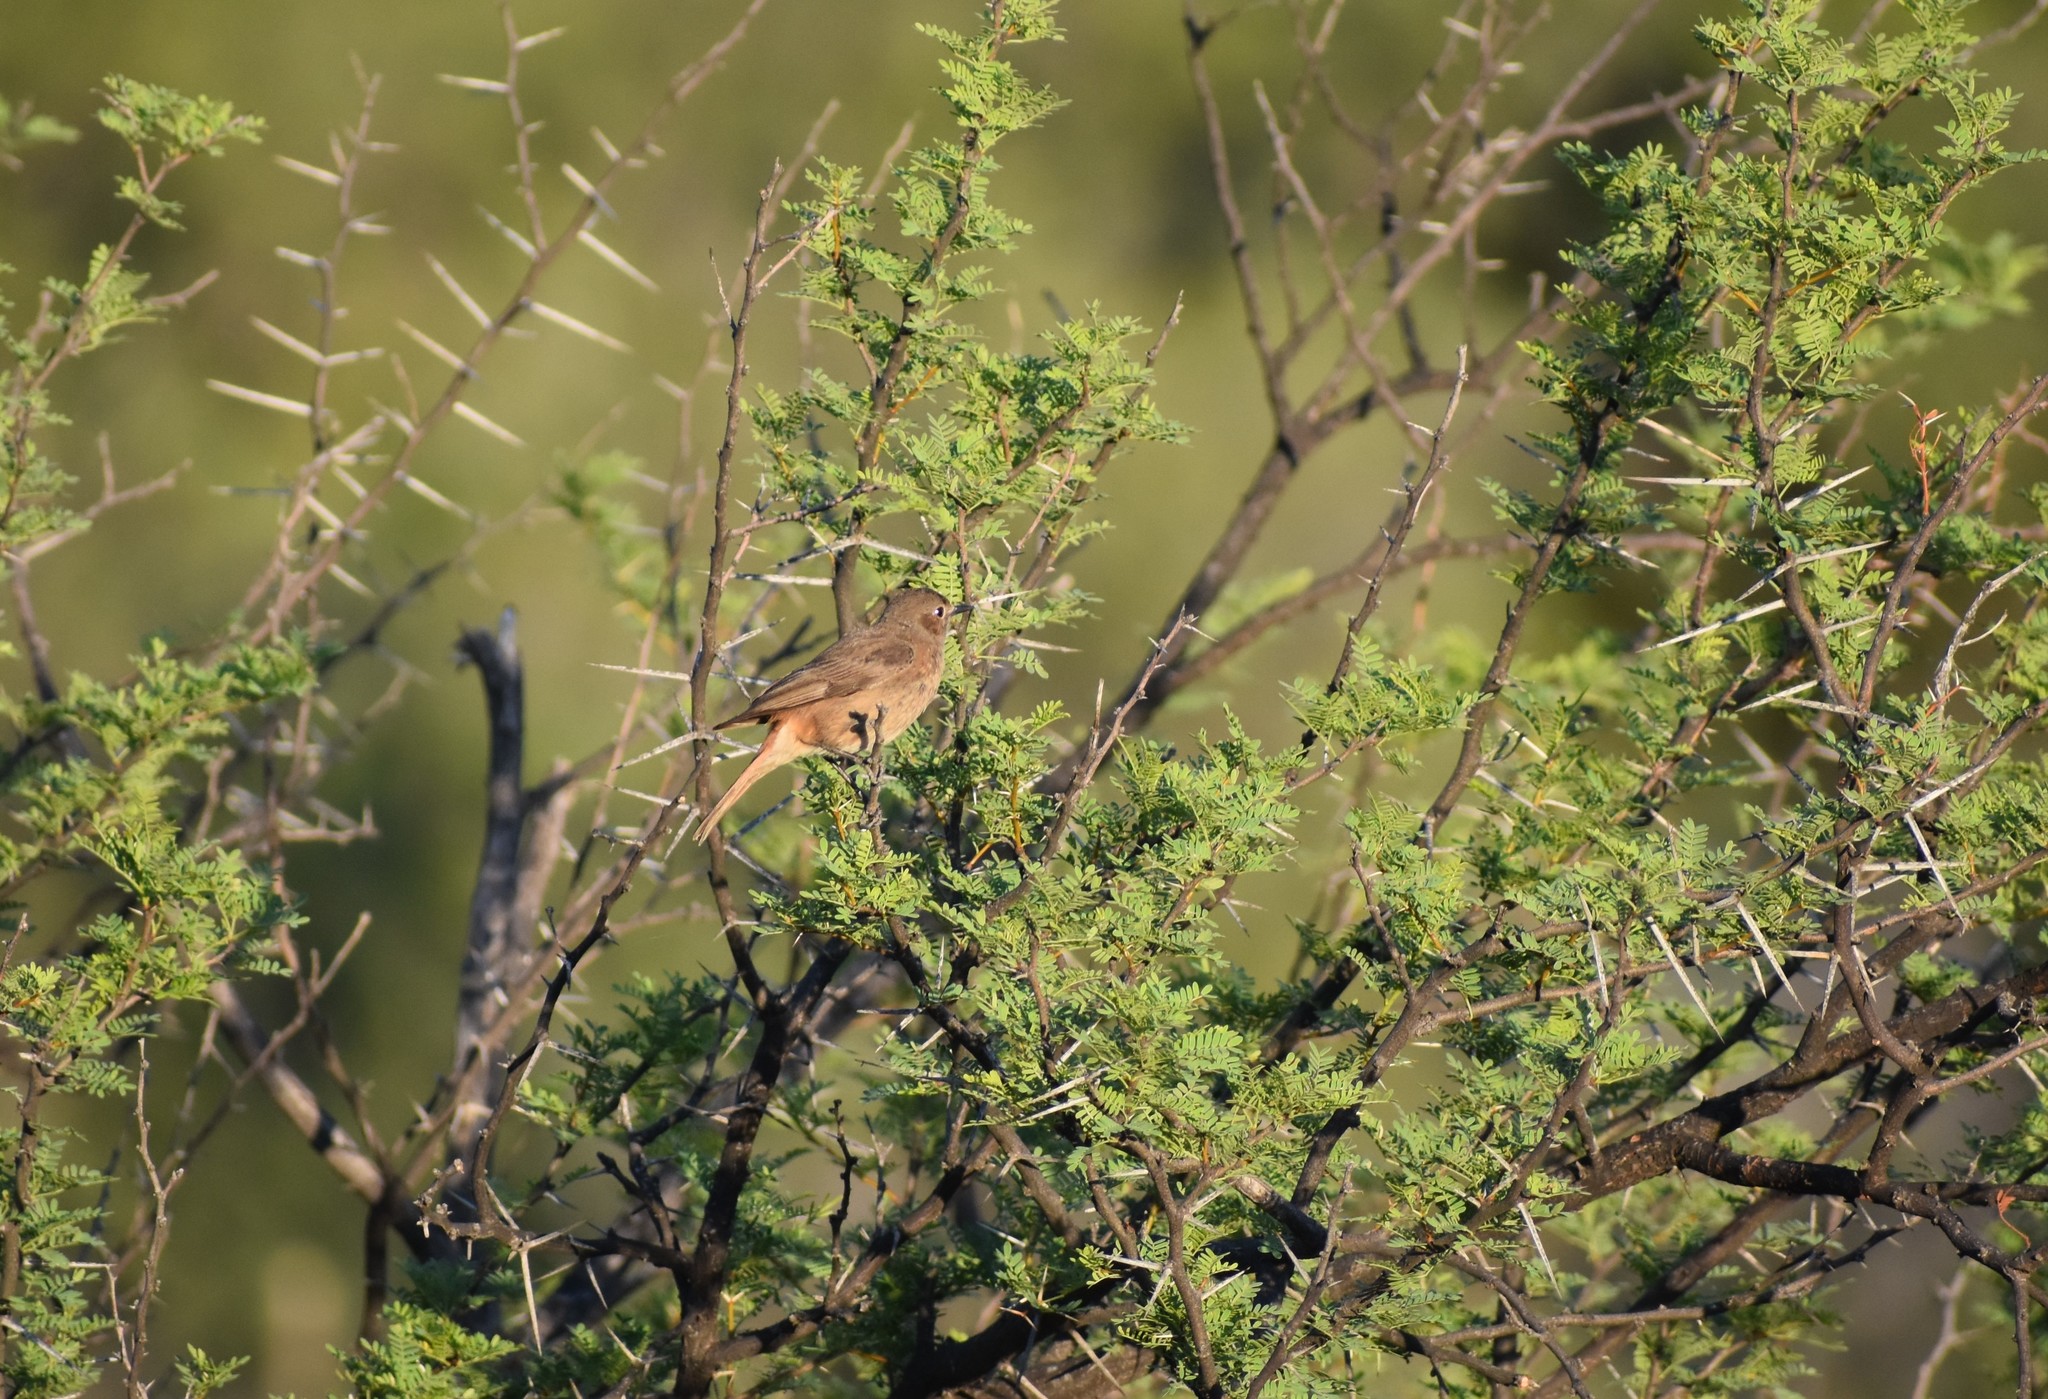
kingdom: Animalia
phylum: Chordata
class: Aves
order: Passeriformes
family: Muscicapidae
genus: Oenanthe
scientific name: Oenanthe familiaris
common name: Familiar chat
